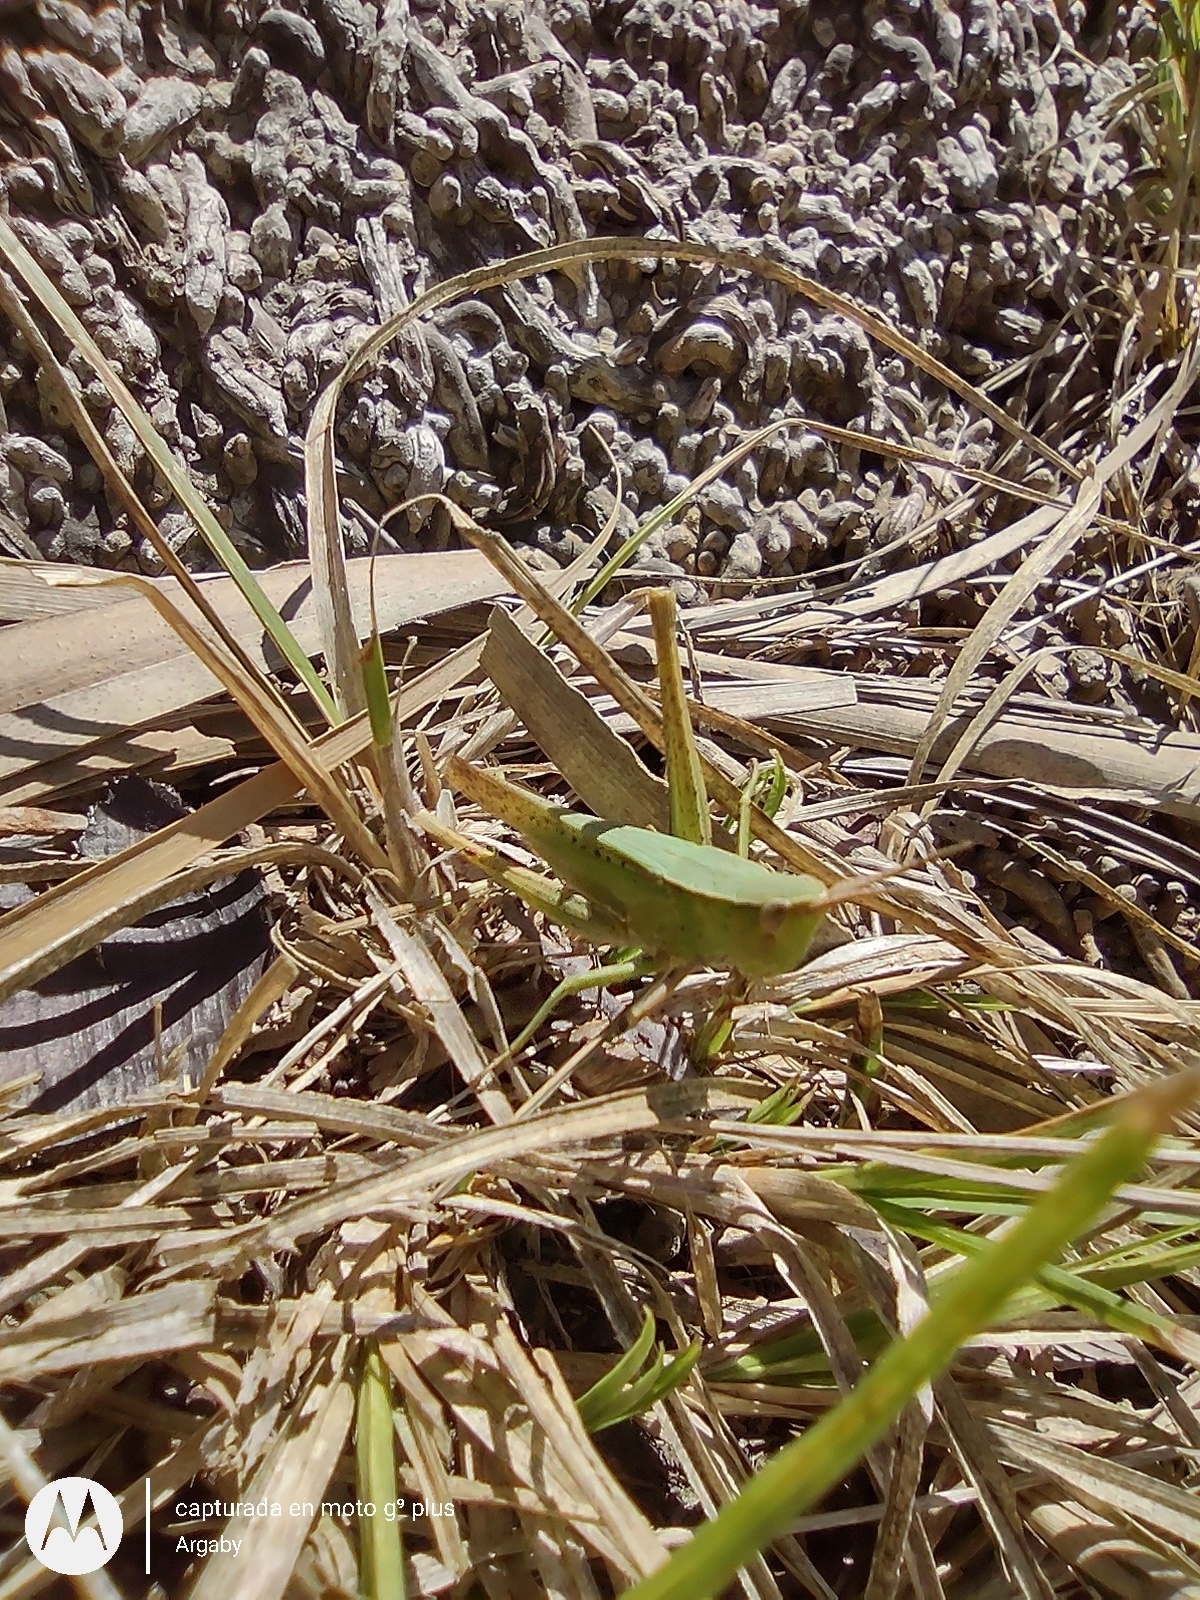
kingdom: Animalia
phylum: Arthropoda
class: Insecta
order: Orthoptera
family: Acrididae
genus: Metaleptea
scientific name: Metaleptea adspersa
